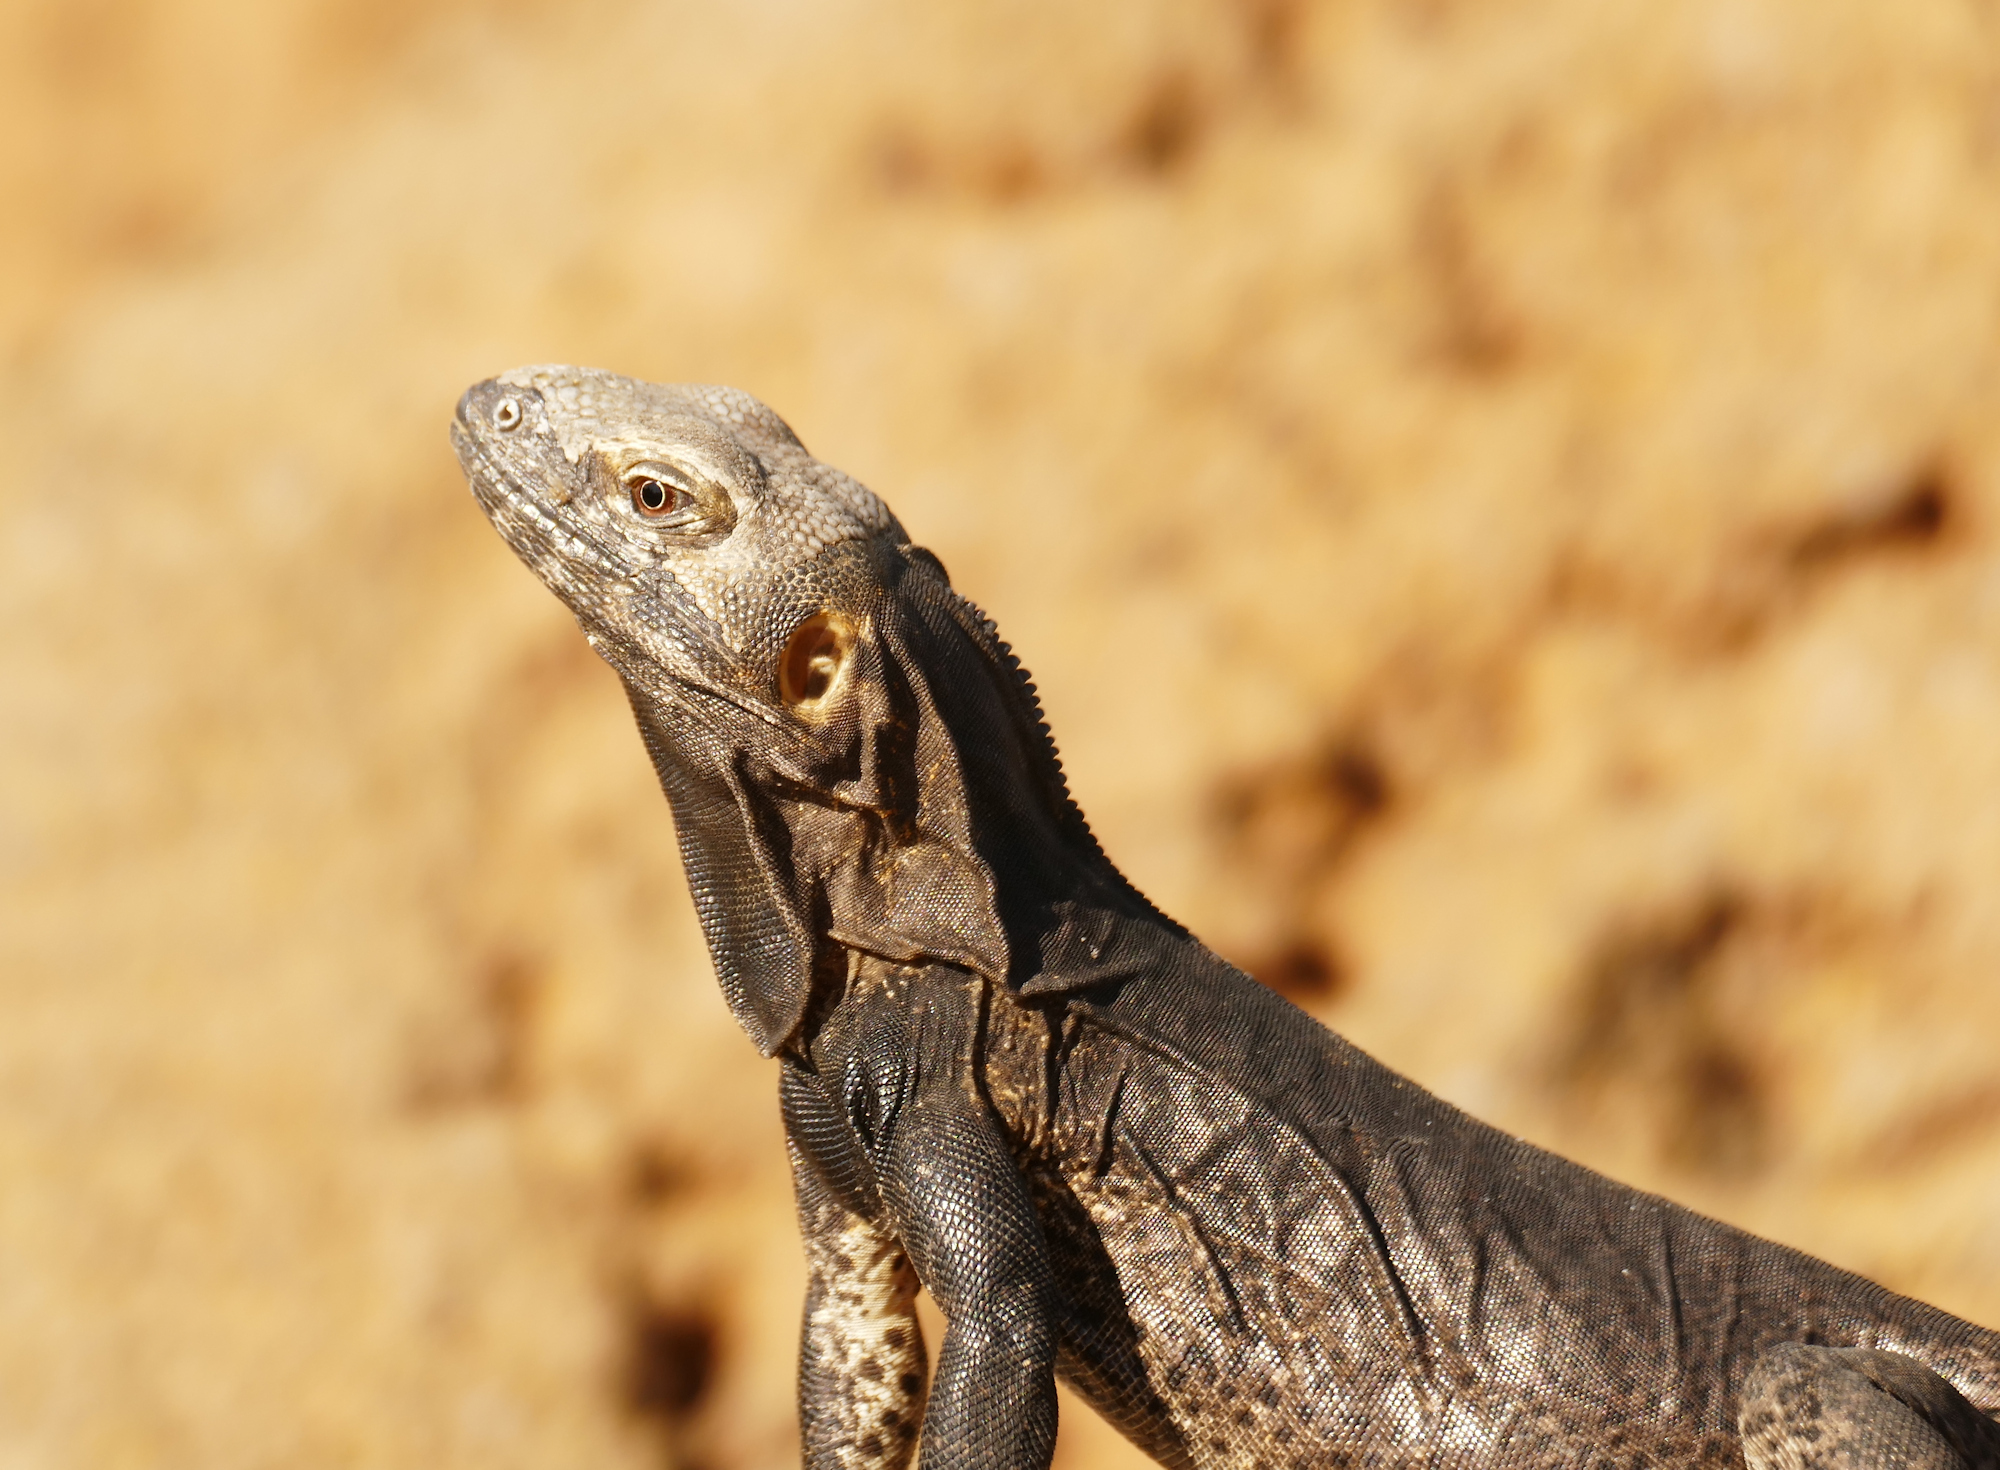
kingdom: Animalia
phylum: Chordata
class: Squamata
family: Iguanidae
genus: Ctenosaura
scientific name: Ctenosaura
